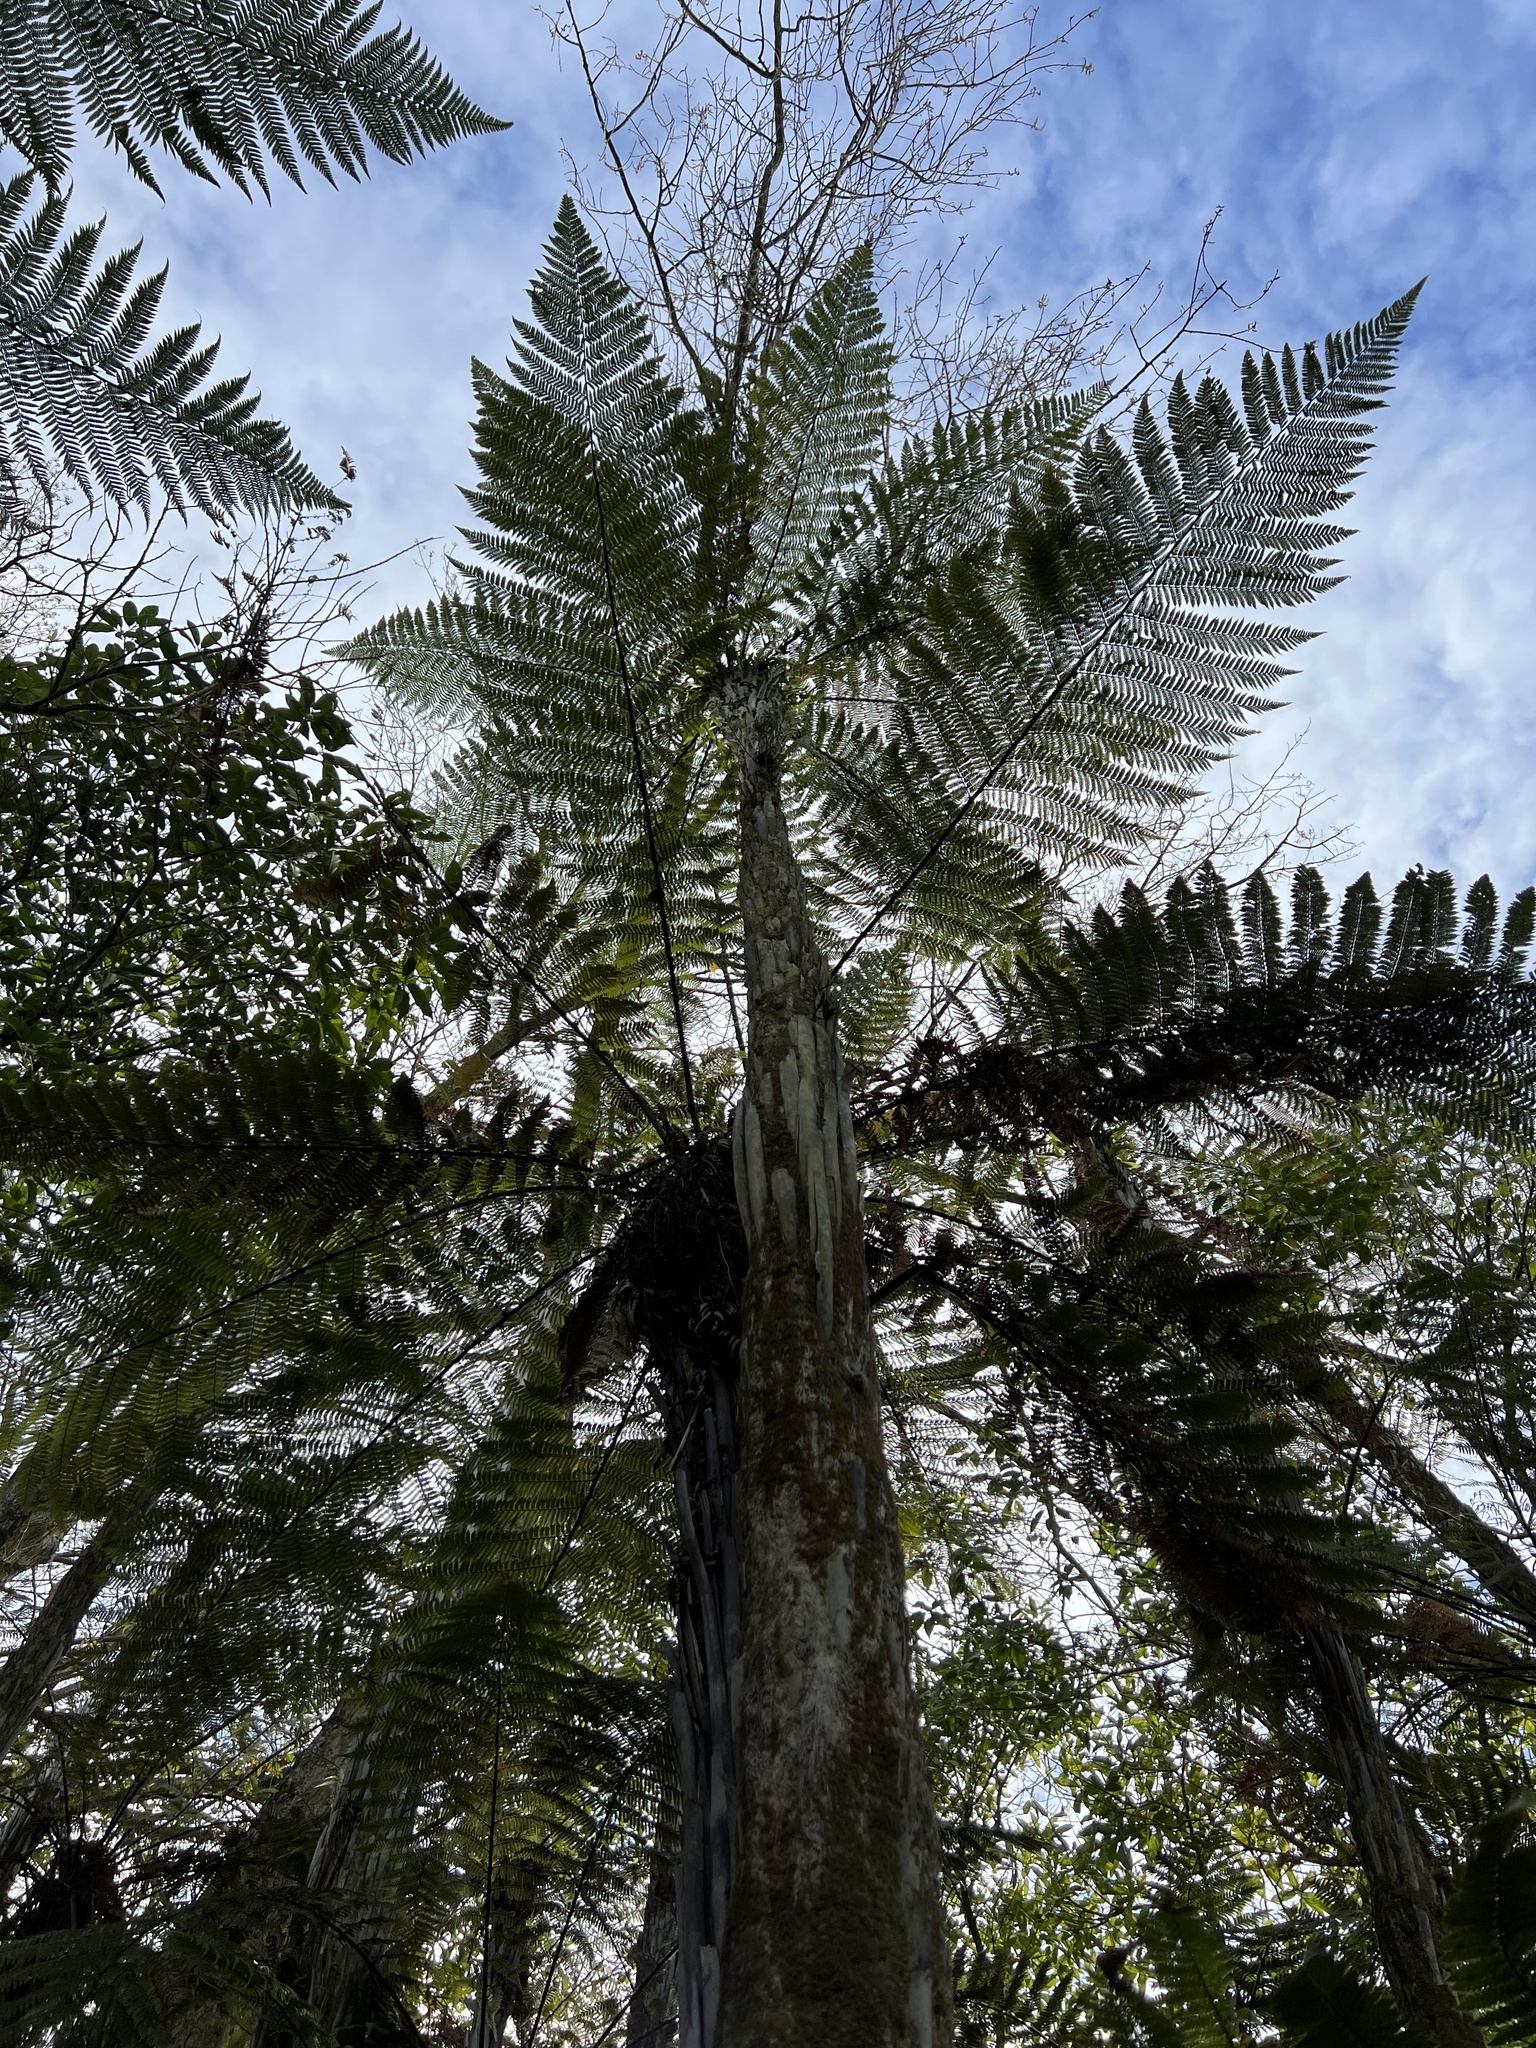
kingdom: Plantae
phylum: Tracheophyta
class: Polypodiopsida
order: Cyatheales
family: Dicksoniaceae
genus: Dicksonia
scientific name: Dicksonia squarrosa
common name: Hard treefern
